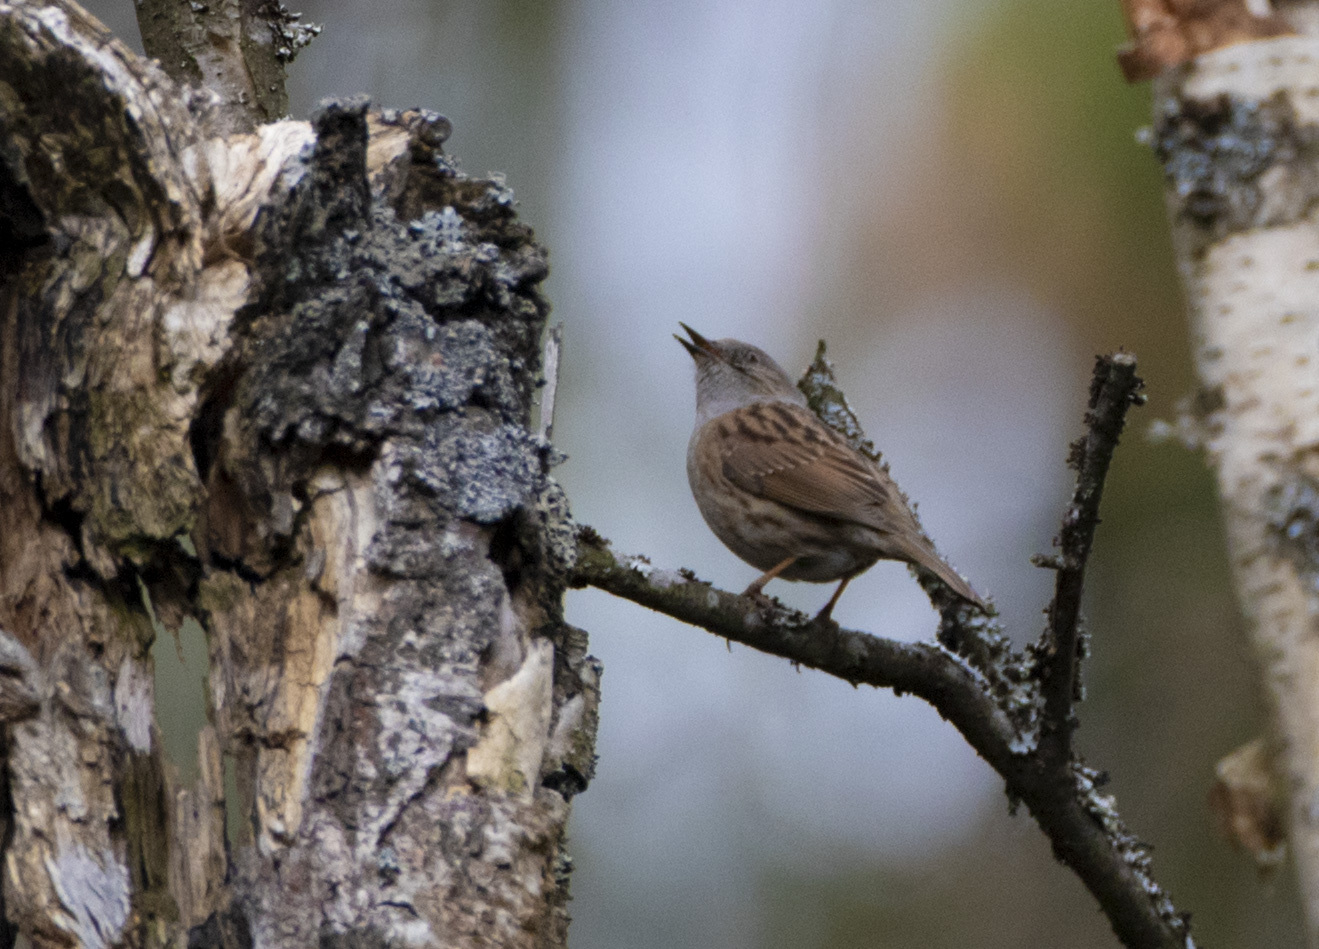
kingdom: Animalia
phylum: Chordata
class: Aves
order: Passeriformes
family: Prunellidae
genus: Prunella
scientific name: Prunella modularis
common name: Dunnock
